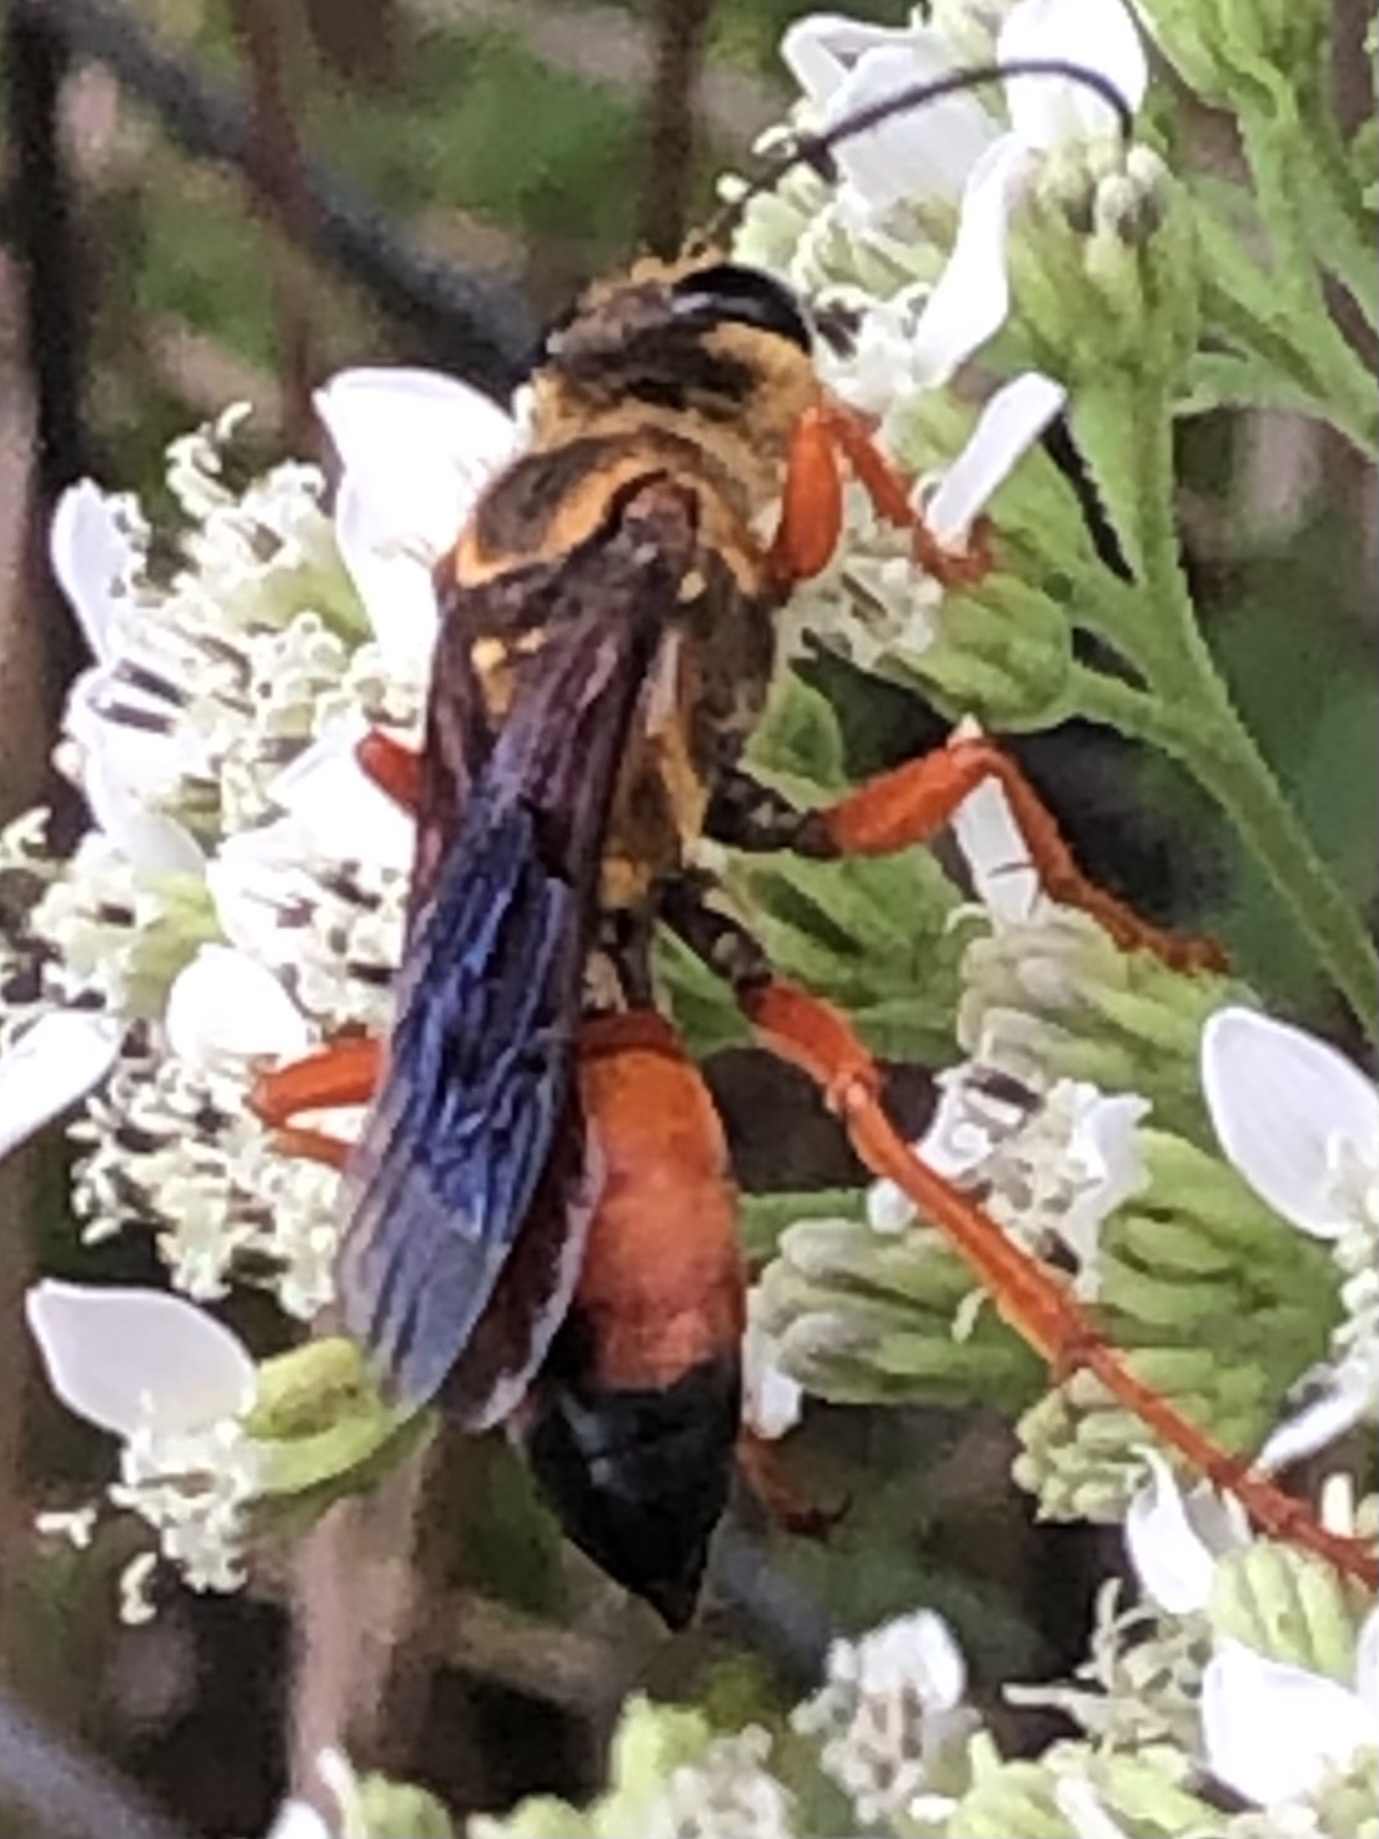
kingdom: Animalia
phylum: Arthropoda
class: Insecta
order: Hymenoptera
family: Sphecidae
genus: Sphex
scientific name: Sphex ichneumoneus
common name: Great golden digger wasp
